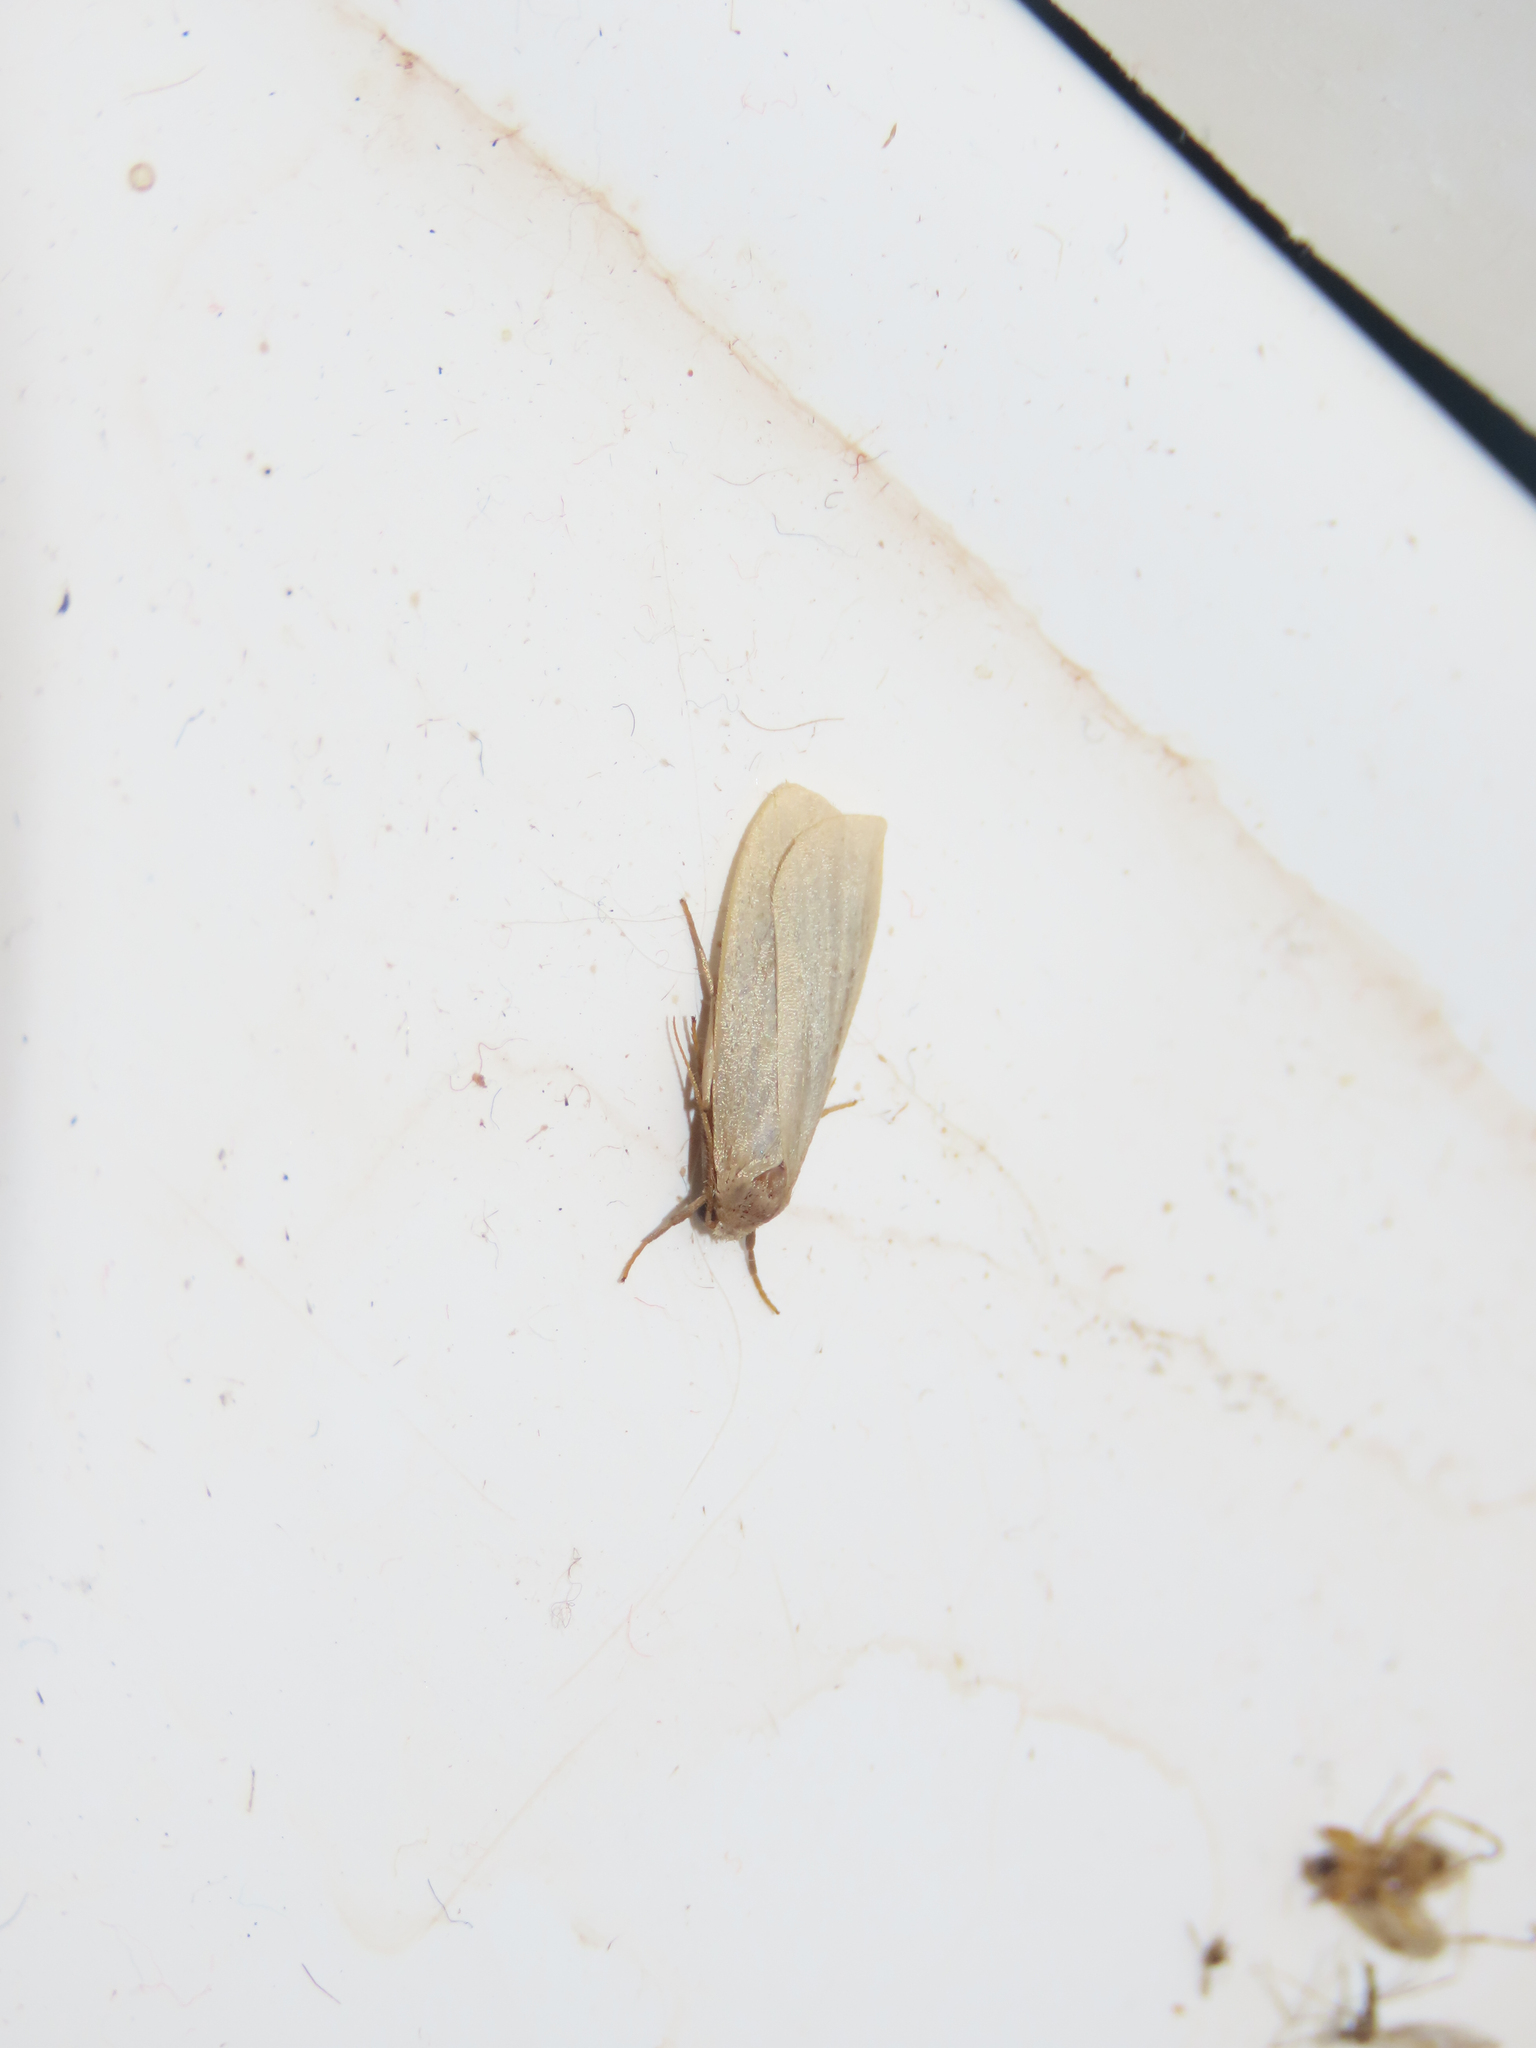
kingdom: Animalia
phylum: Arthropoda
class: Insecta
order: Lepidoptera
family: Erebidae
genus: Crambidia
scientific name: Crambidia pallida
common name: Pale lichen moth
